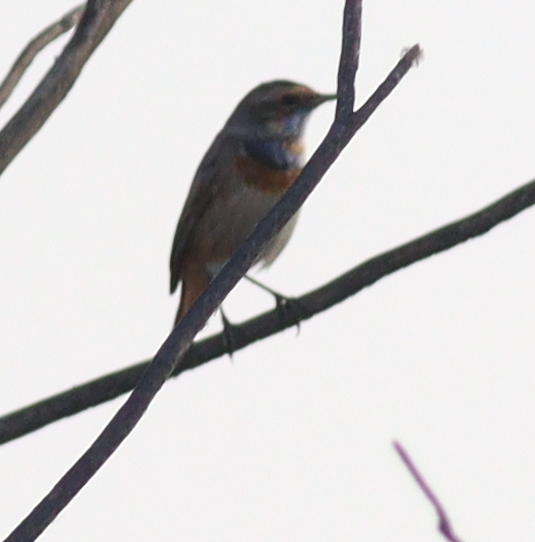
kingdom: Animalia
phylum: Chordata
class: Aves
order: Passeriformes
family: Muscicapidae
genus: Luscinia
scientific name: Luscinia svecica
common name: Bluethroat
